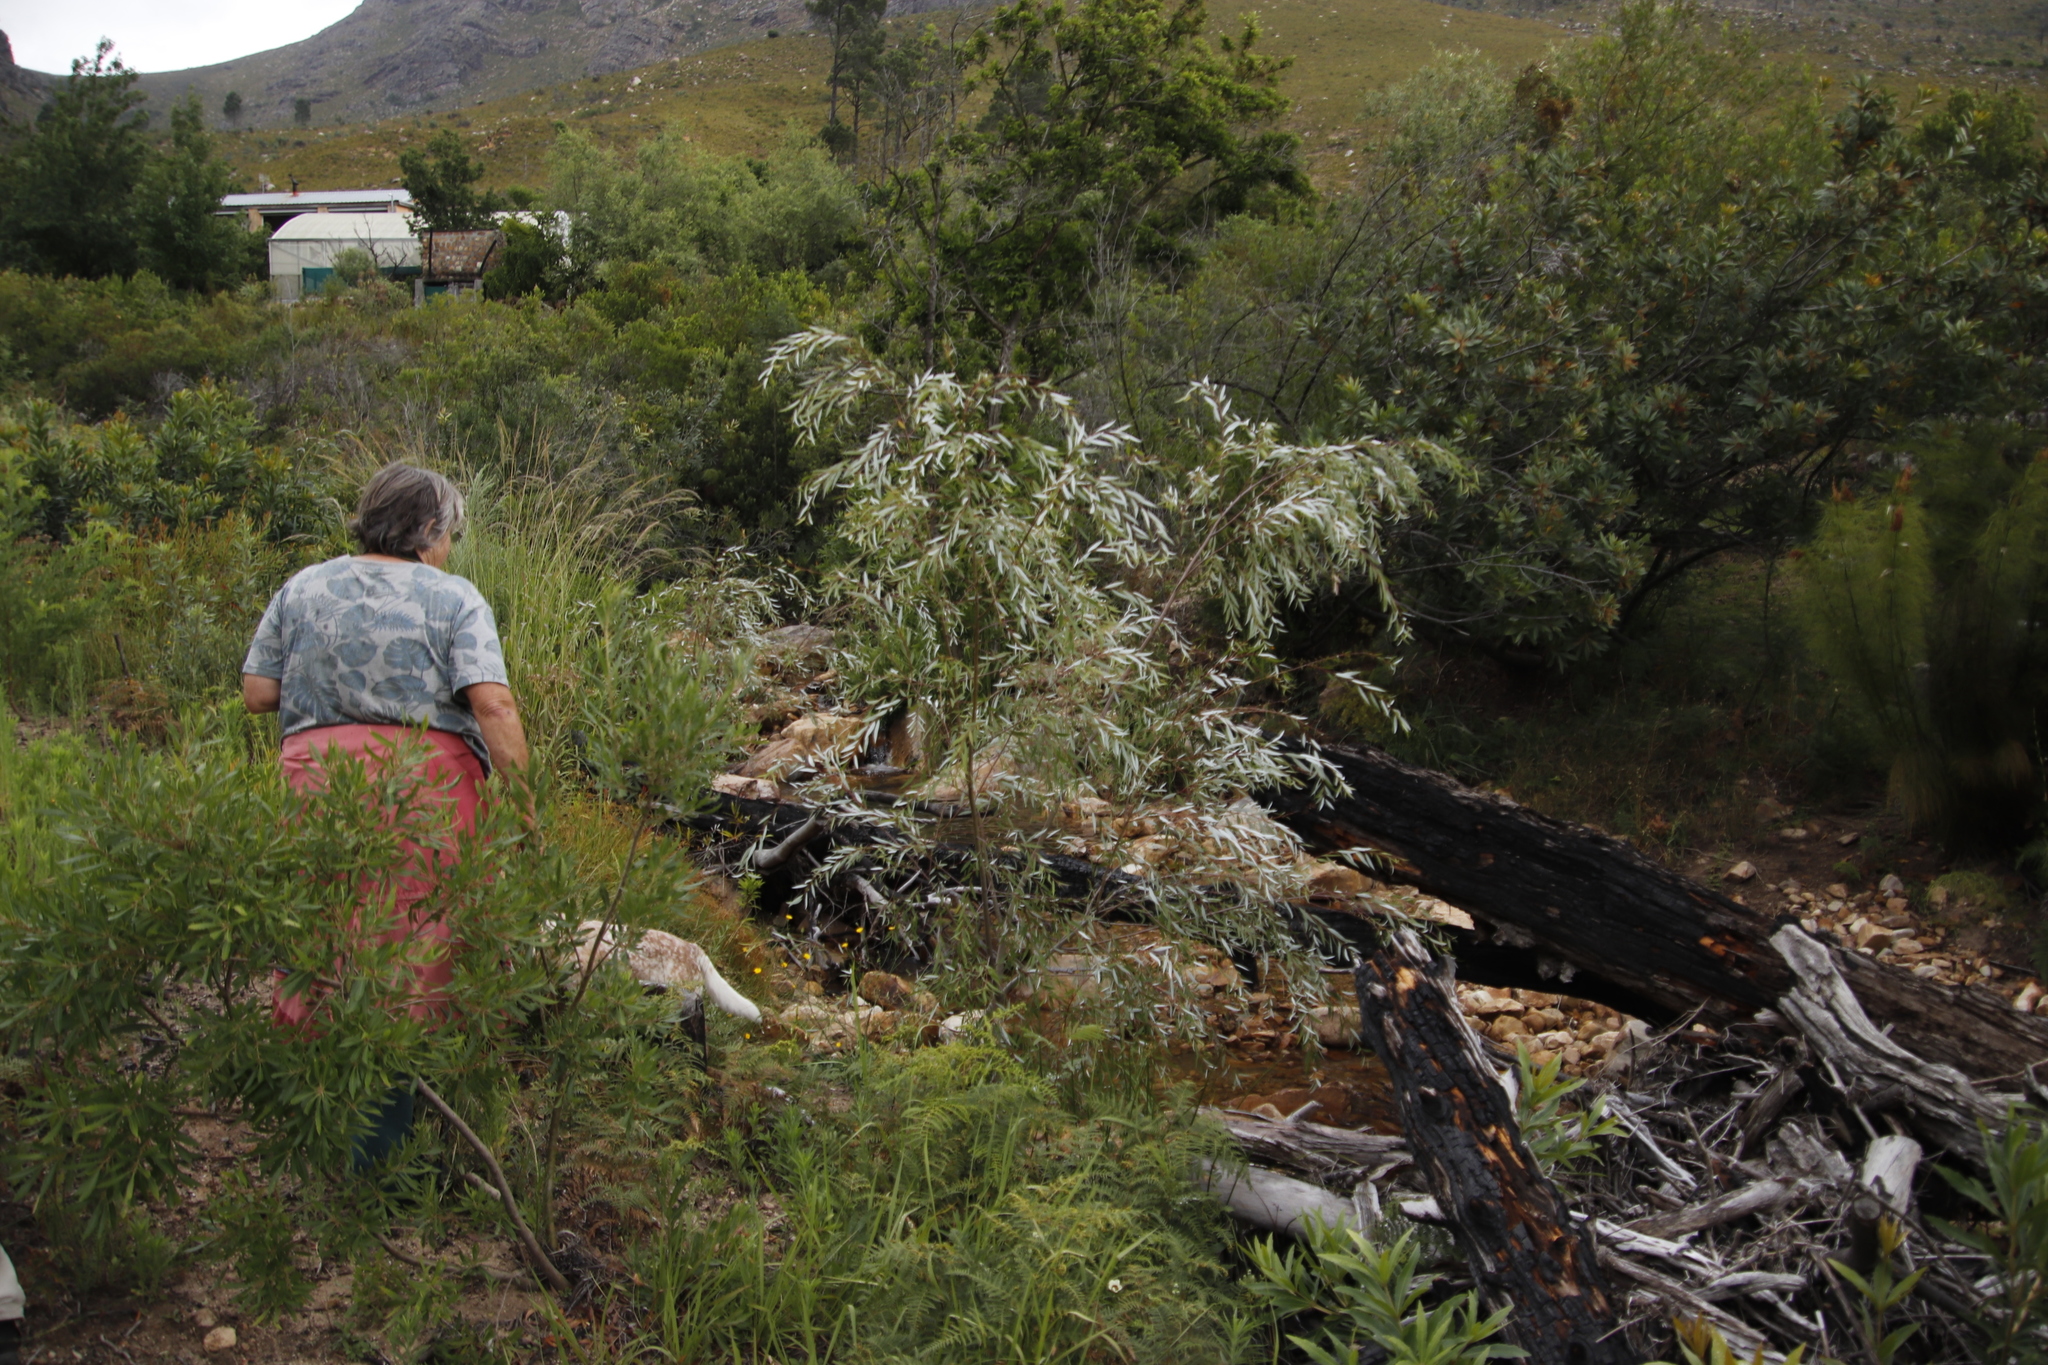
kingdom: Plantae
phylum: Tracheophyta
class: Magnoliopsida
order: Malpighiales
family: Salicaceae
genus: Salix
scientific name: Salix mucronata
